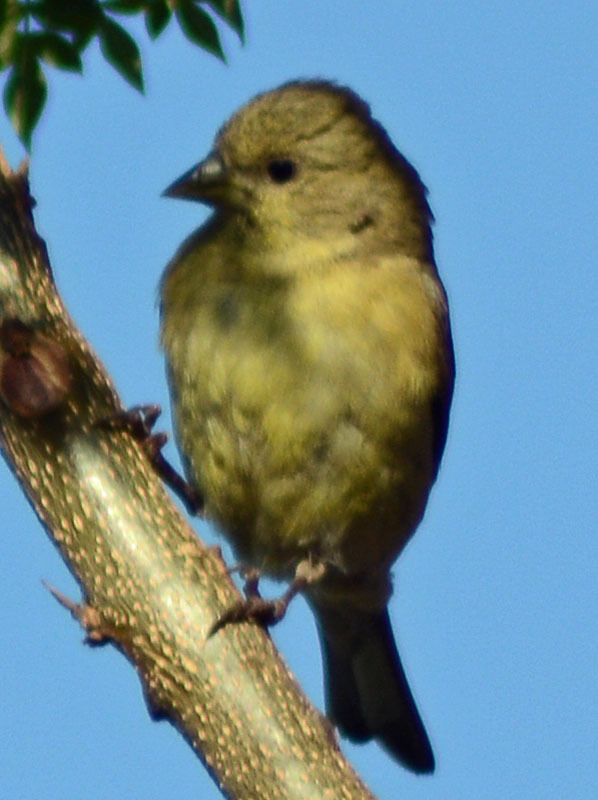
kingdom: Animalia
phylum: Chordata
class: Aves
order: Passeriformes
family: Fringillidae
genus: Spinus
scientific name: Spinus psaltria
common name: Lesser goldfinch
